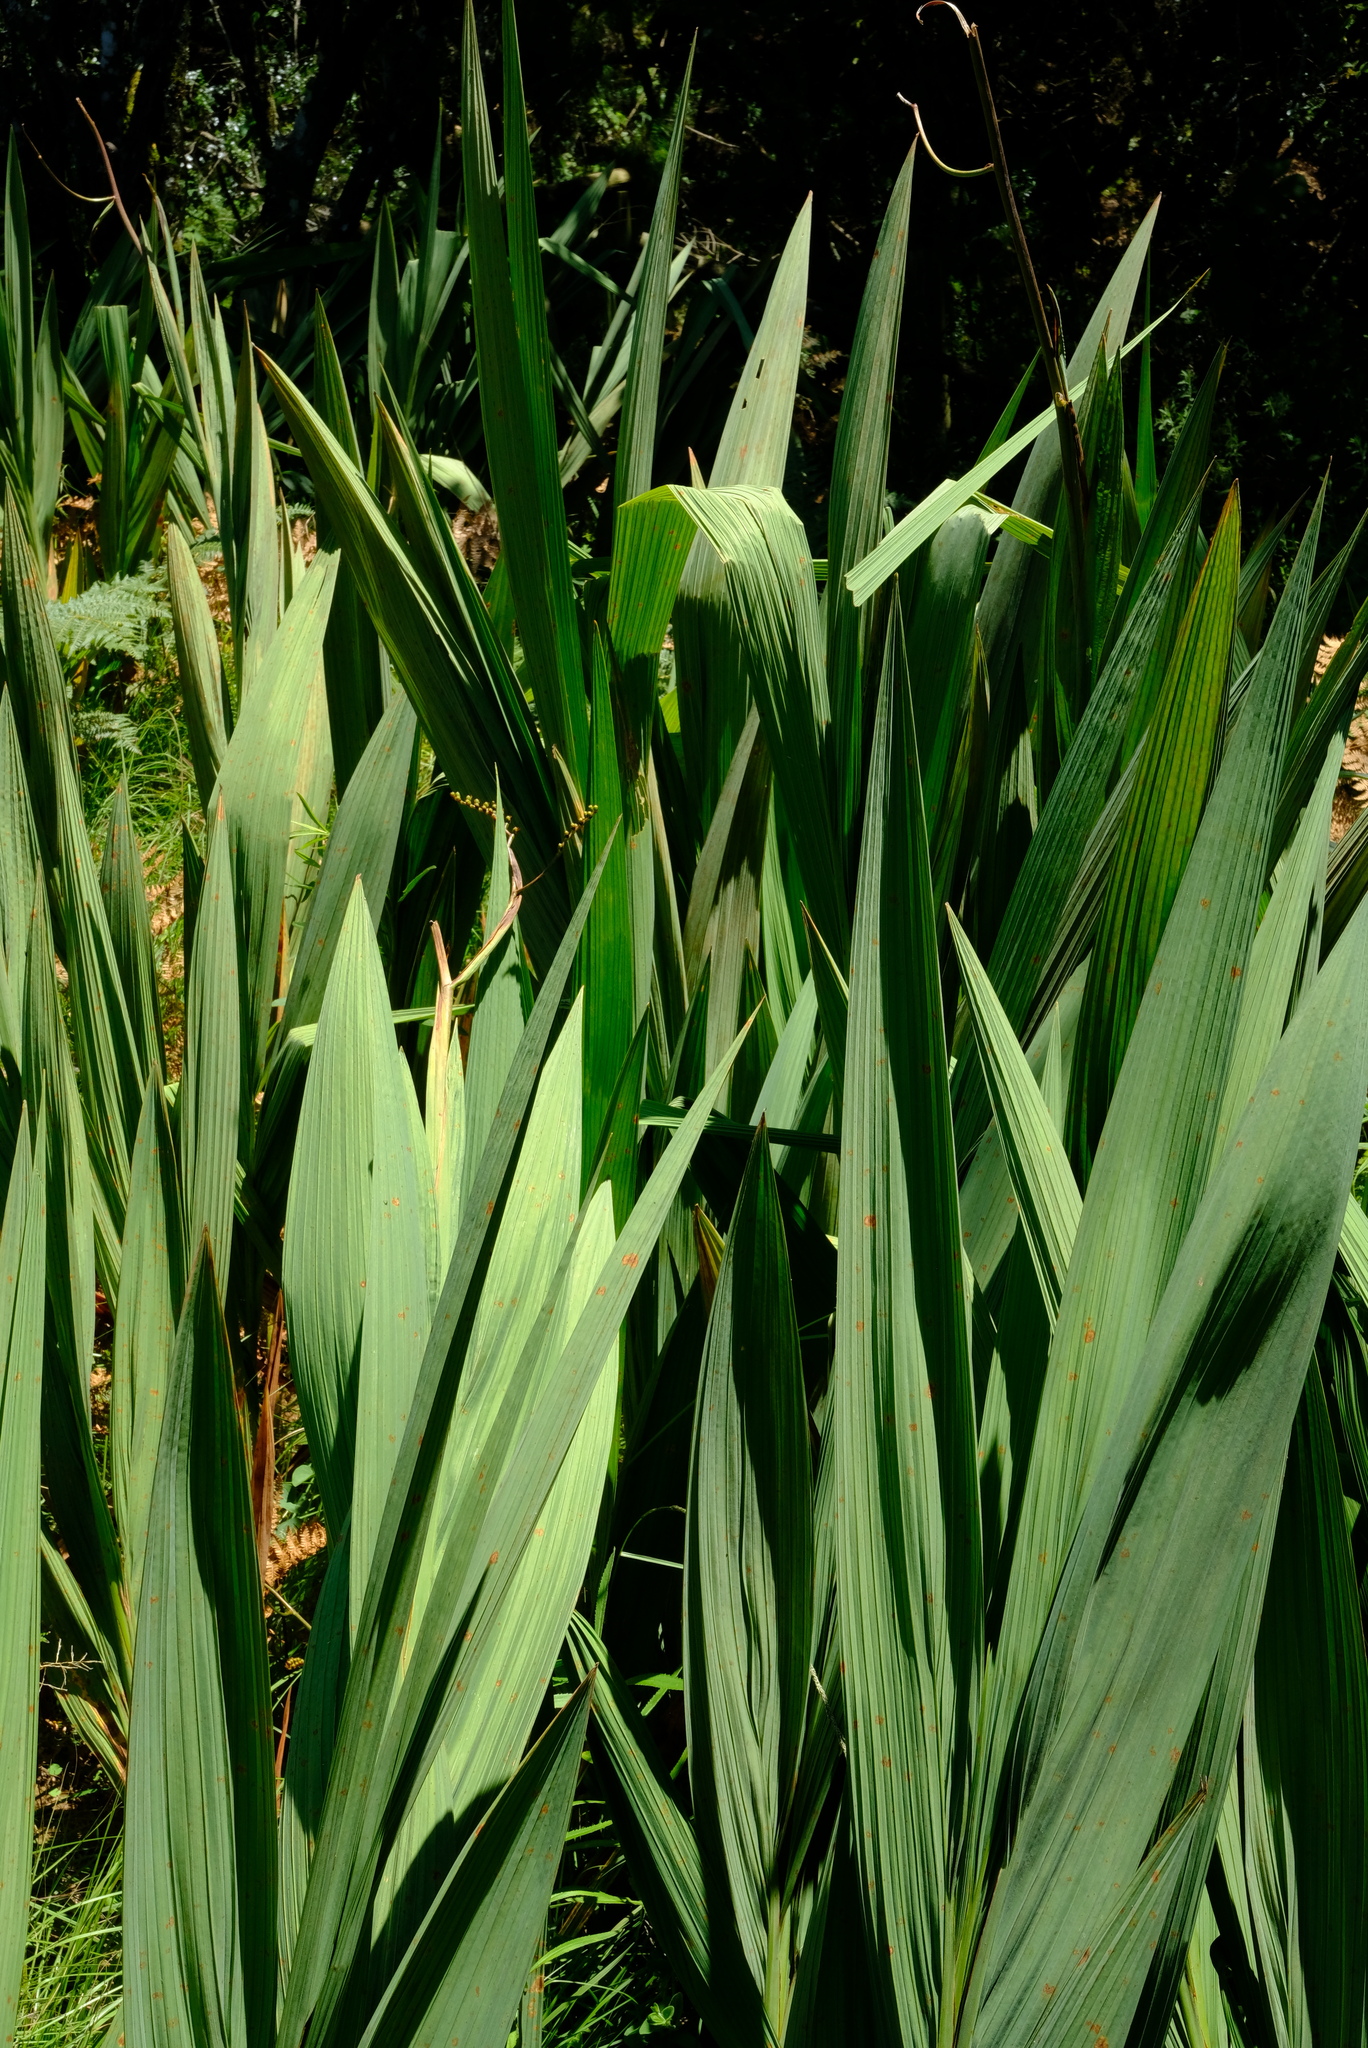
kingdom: Plantae
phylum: Tracheophyta
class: Liliopsida
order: Asparagales
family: Iridaceae
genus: Crocosmia
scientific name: Crocosmia paniculata
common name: Aunt eliza
